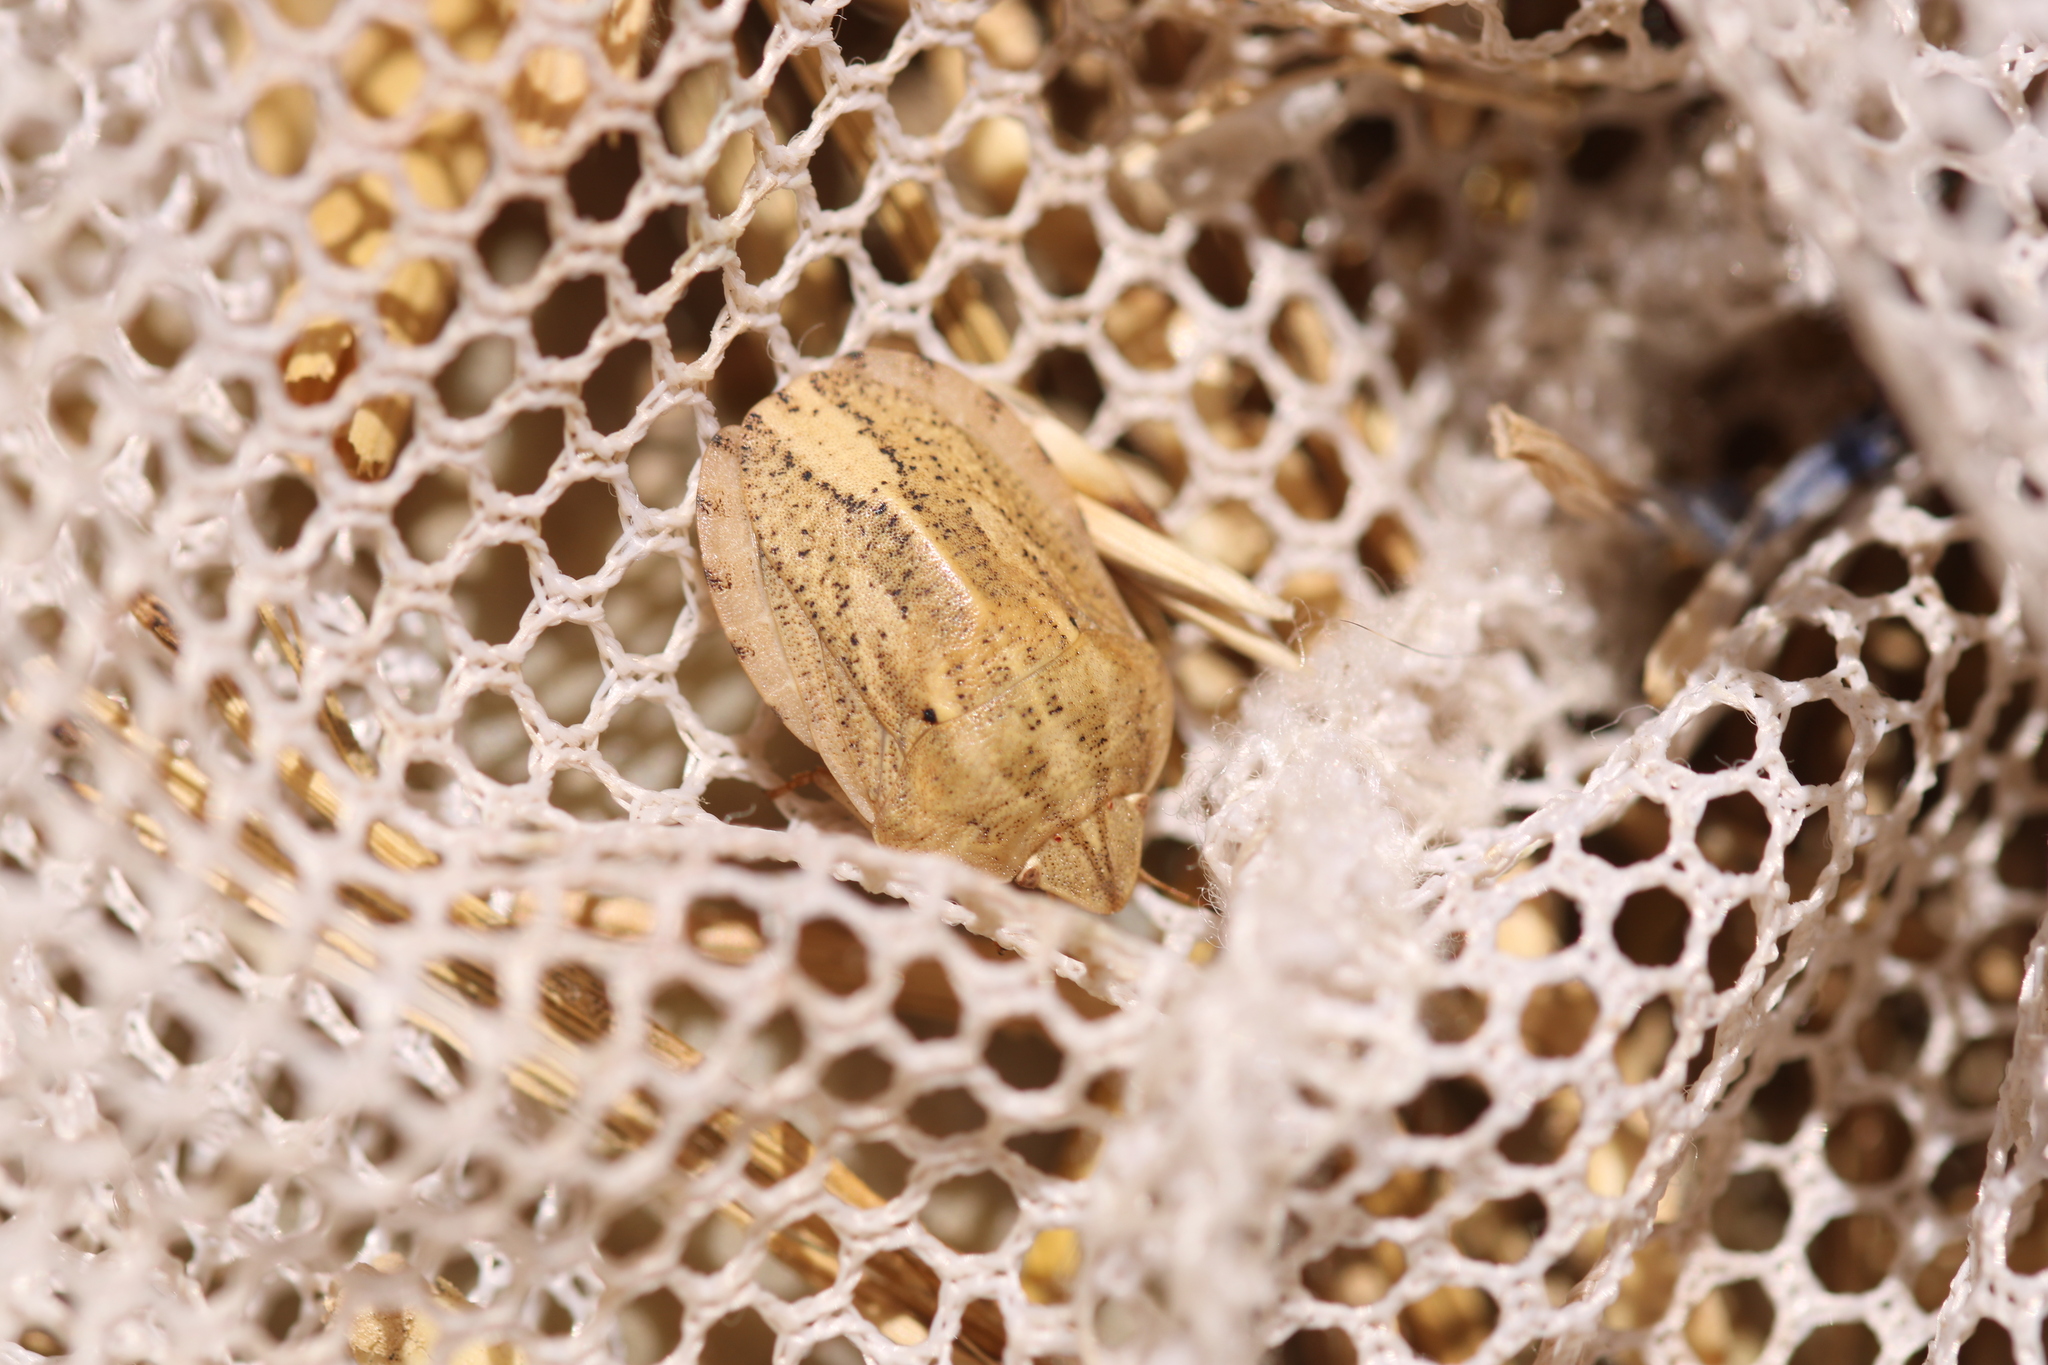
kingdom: Animalia
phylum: Arthropoda
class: Insecta
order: Hemiptera
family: Scutelleridae
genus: Eurygaster
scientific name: Eurygaster austriaca
